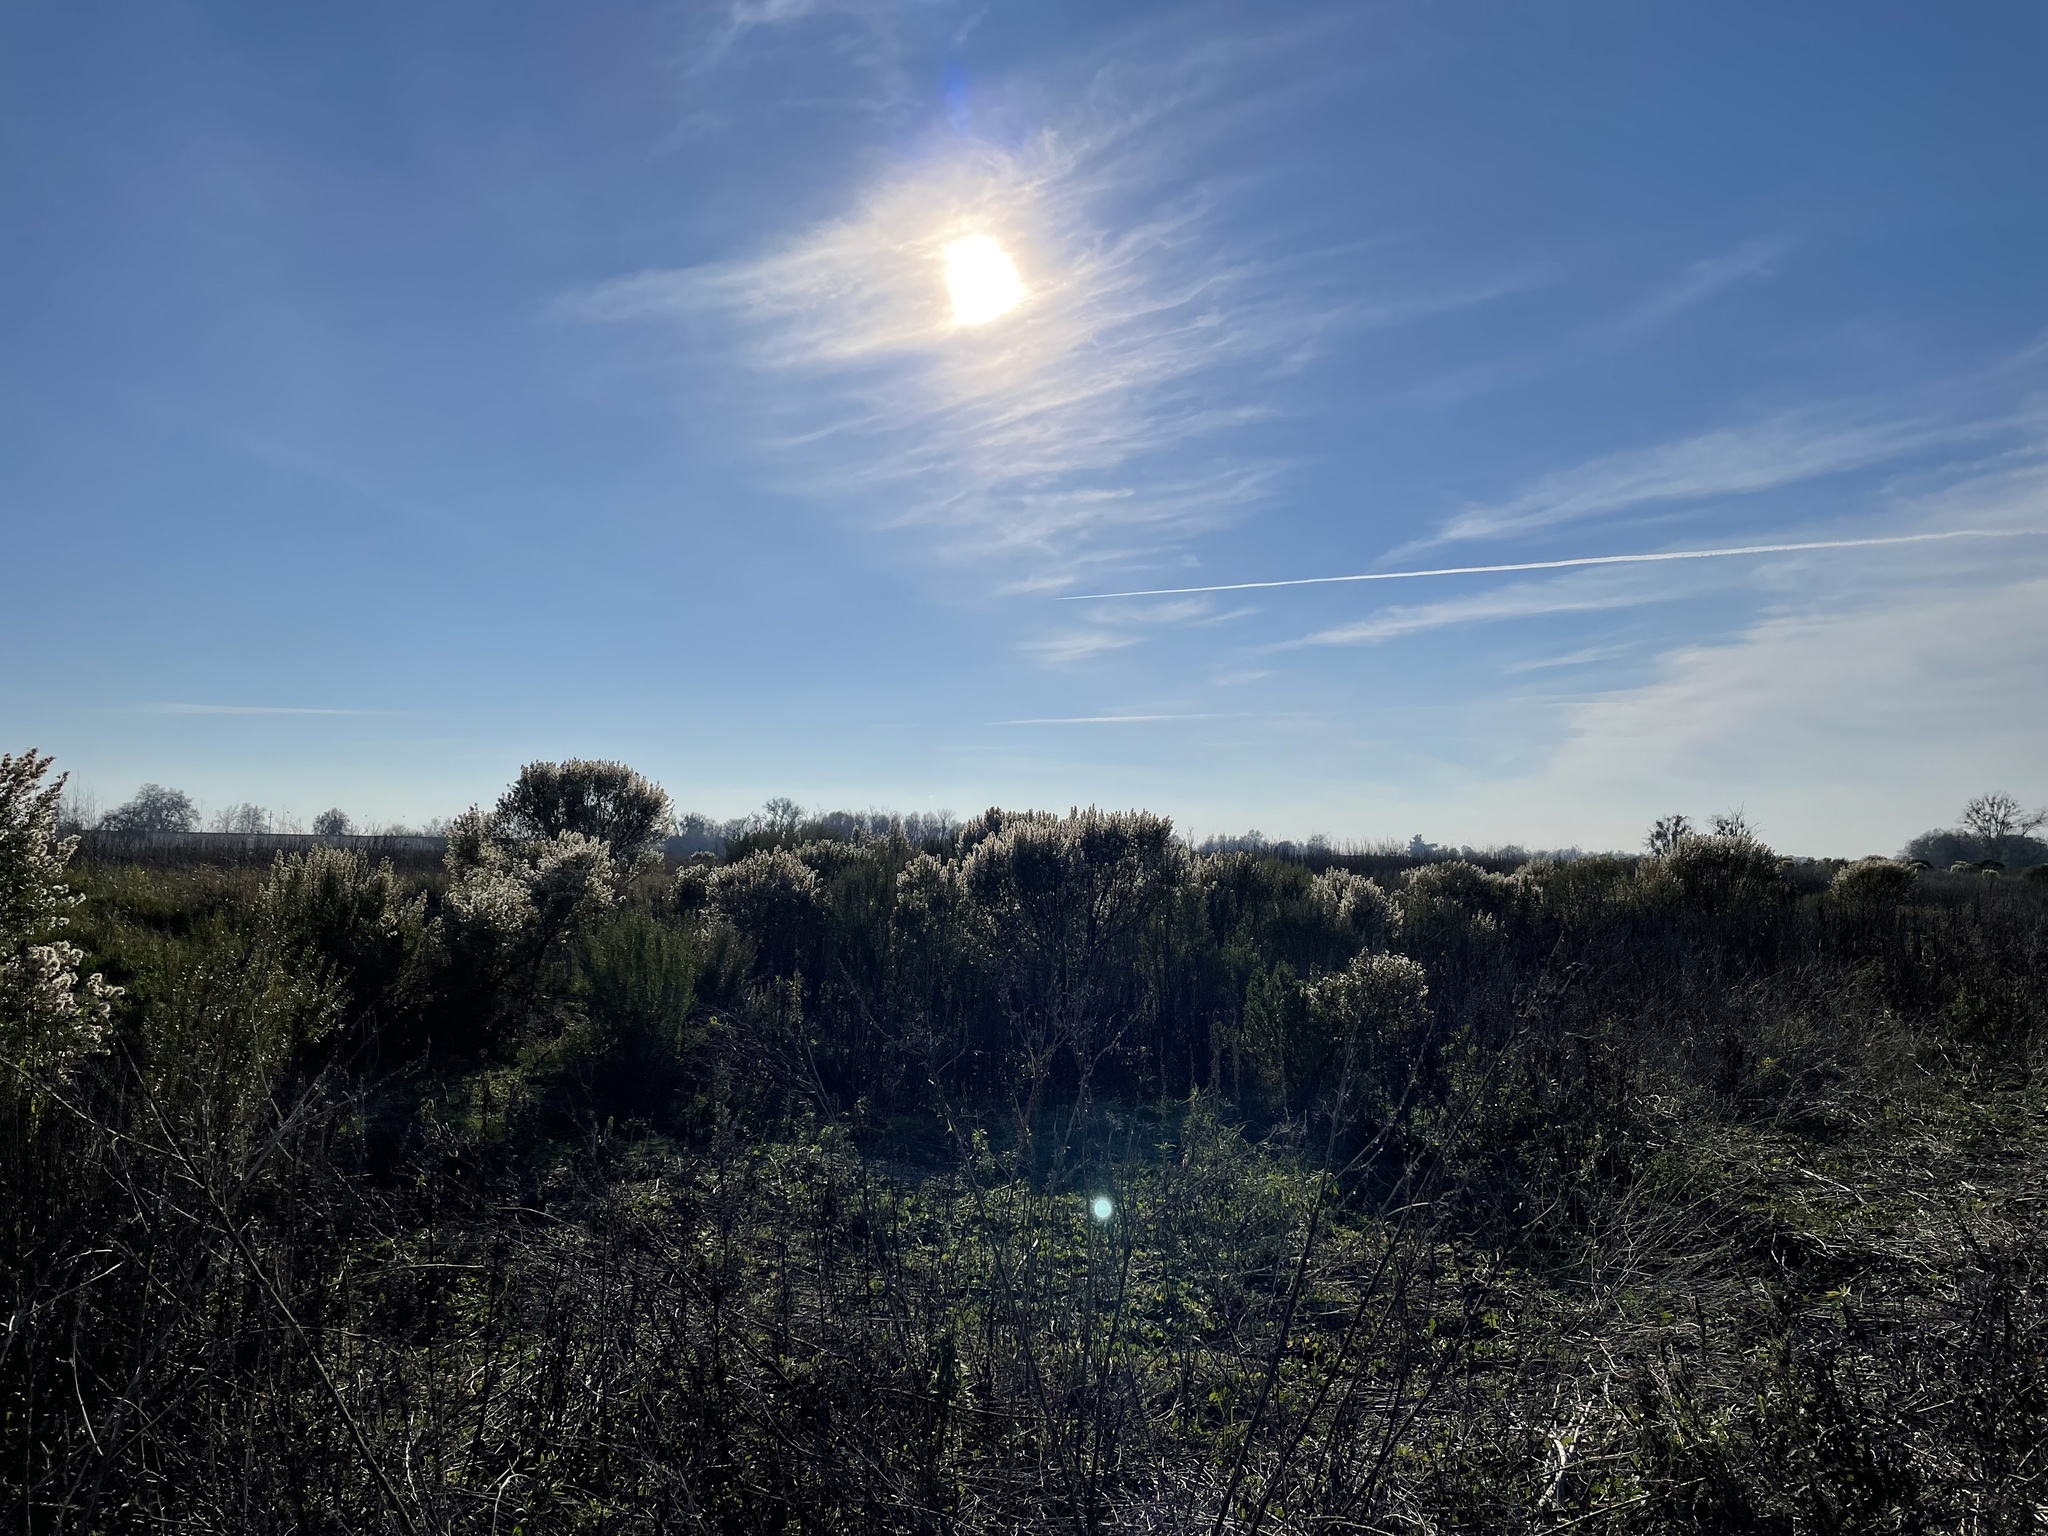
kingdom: Plantae
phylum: Tracheophyta
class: Magnoliopsida
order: Asterales
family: Asteraceae
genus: Baccharis
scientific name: Baccharis pilularis
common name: Coyotebrush
